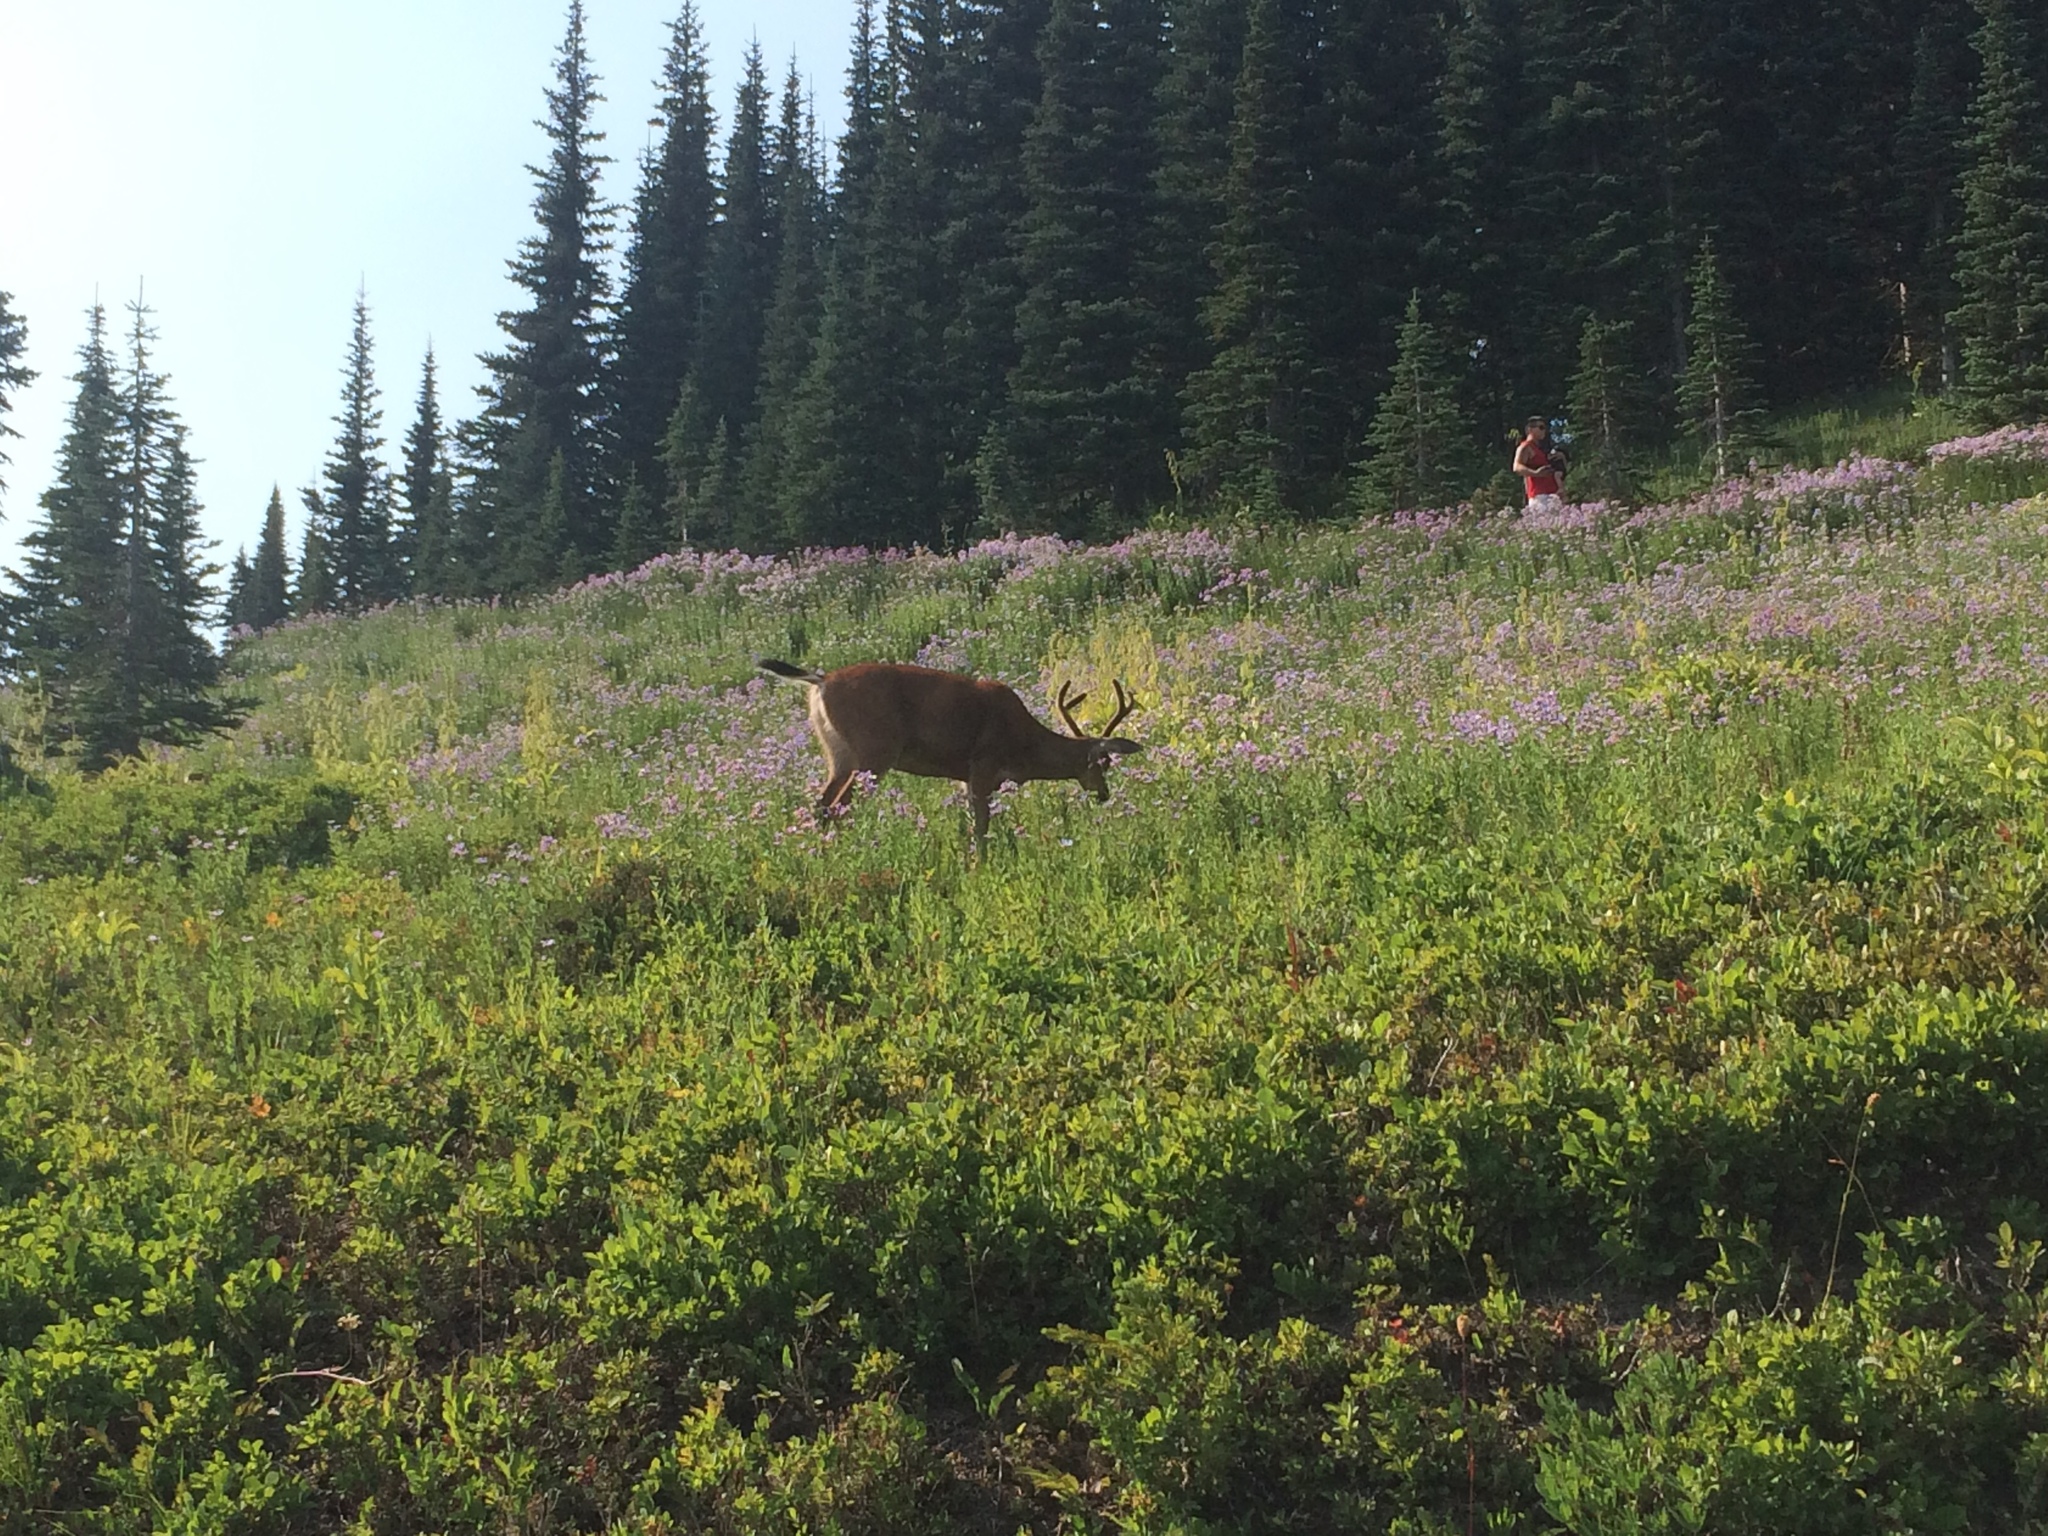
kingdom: Animalia
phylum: Chordata
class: Mammalia
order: Artiodactyla
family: Cervidae
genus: Odocoileus
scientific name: Odocoileus hemionus
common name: Mule deer
